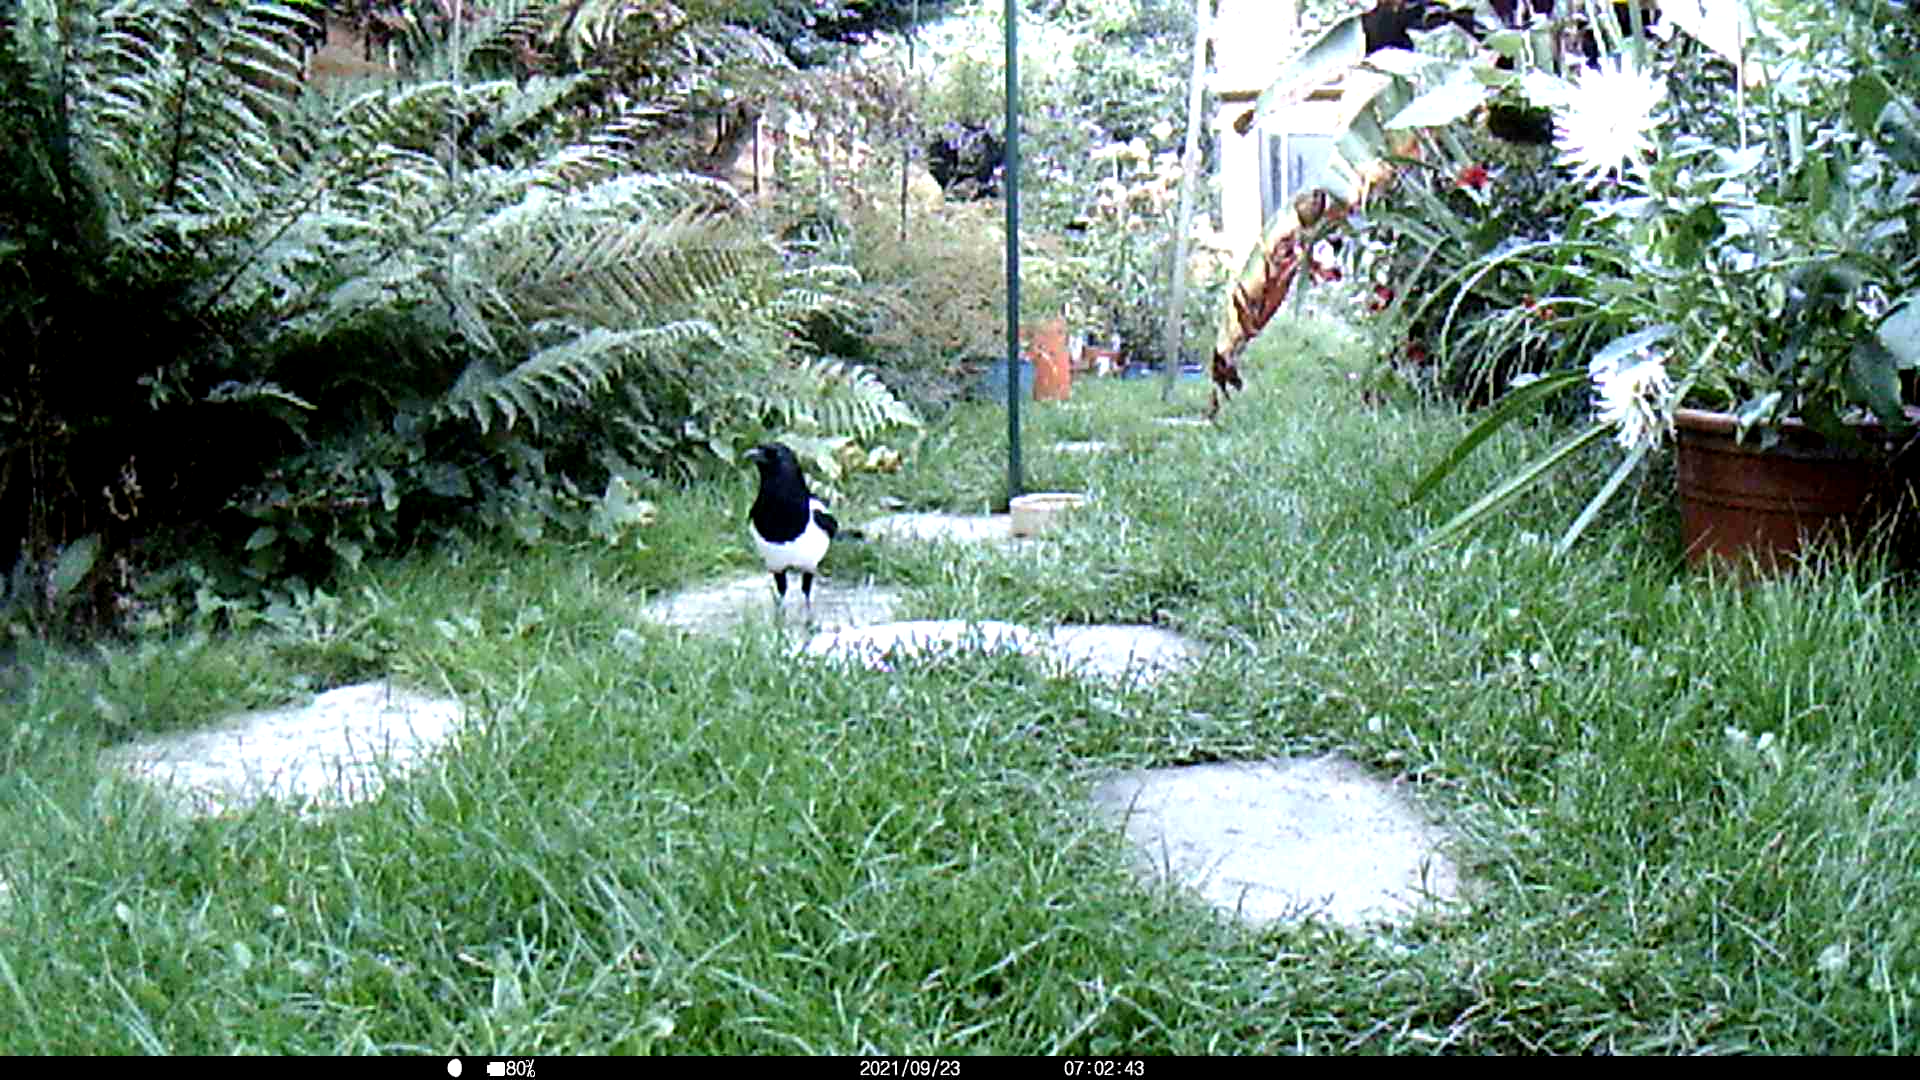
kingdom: Animalia
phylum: Chordata
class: Aves
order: Passeriformes
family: Corvidae
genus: Pica
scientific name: Pica pica
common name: Eurasian magpie
